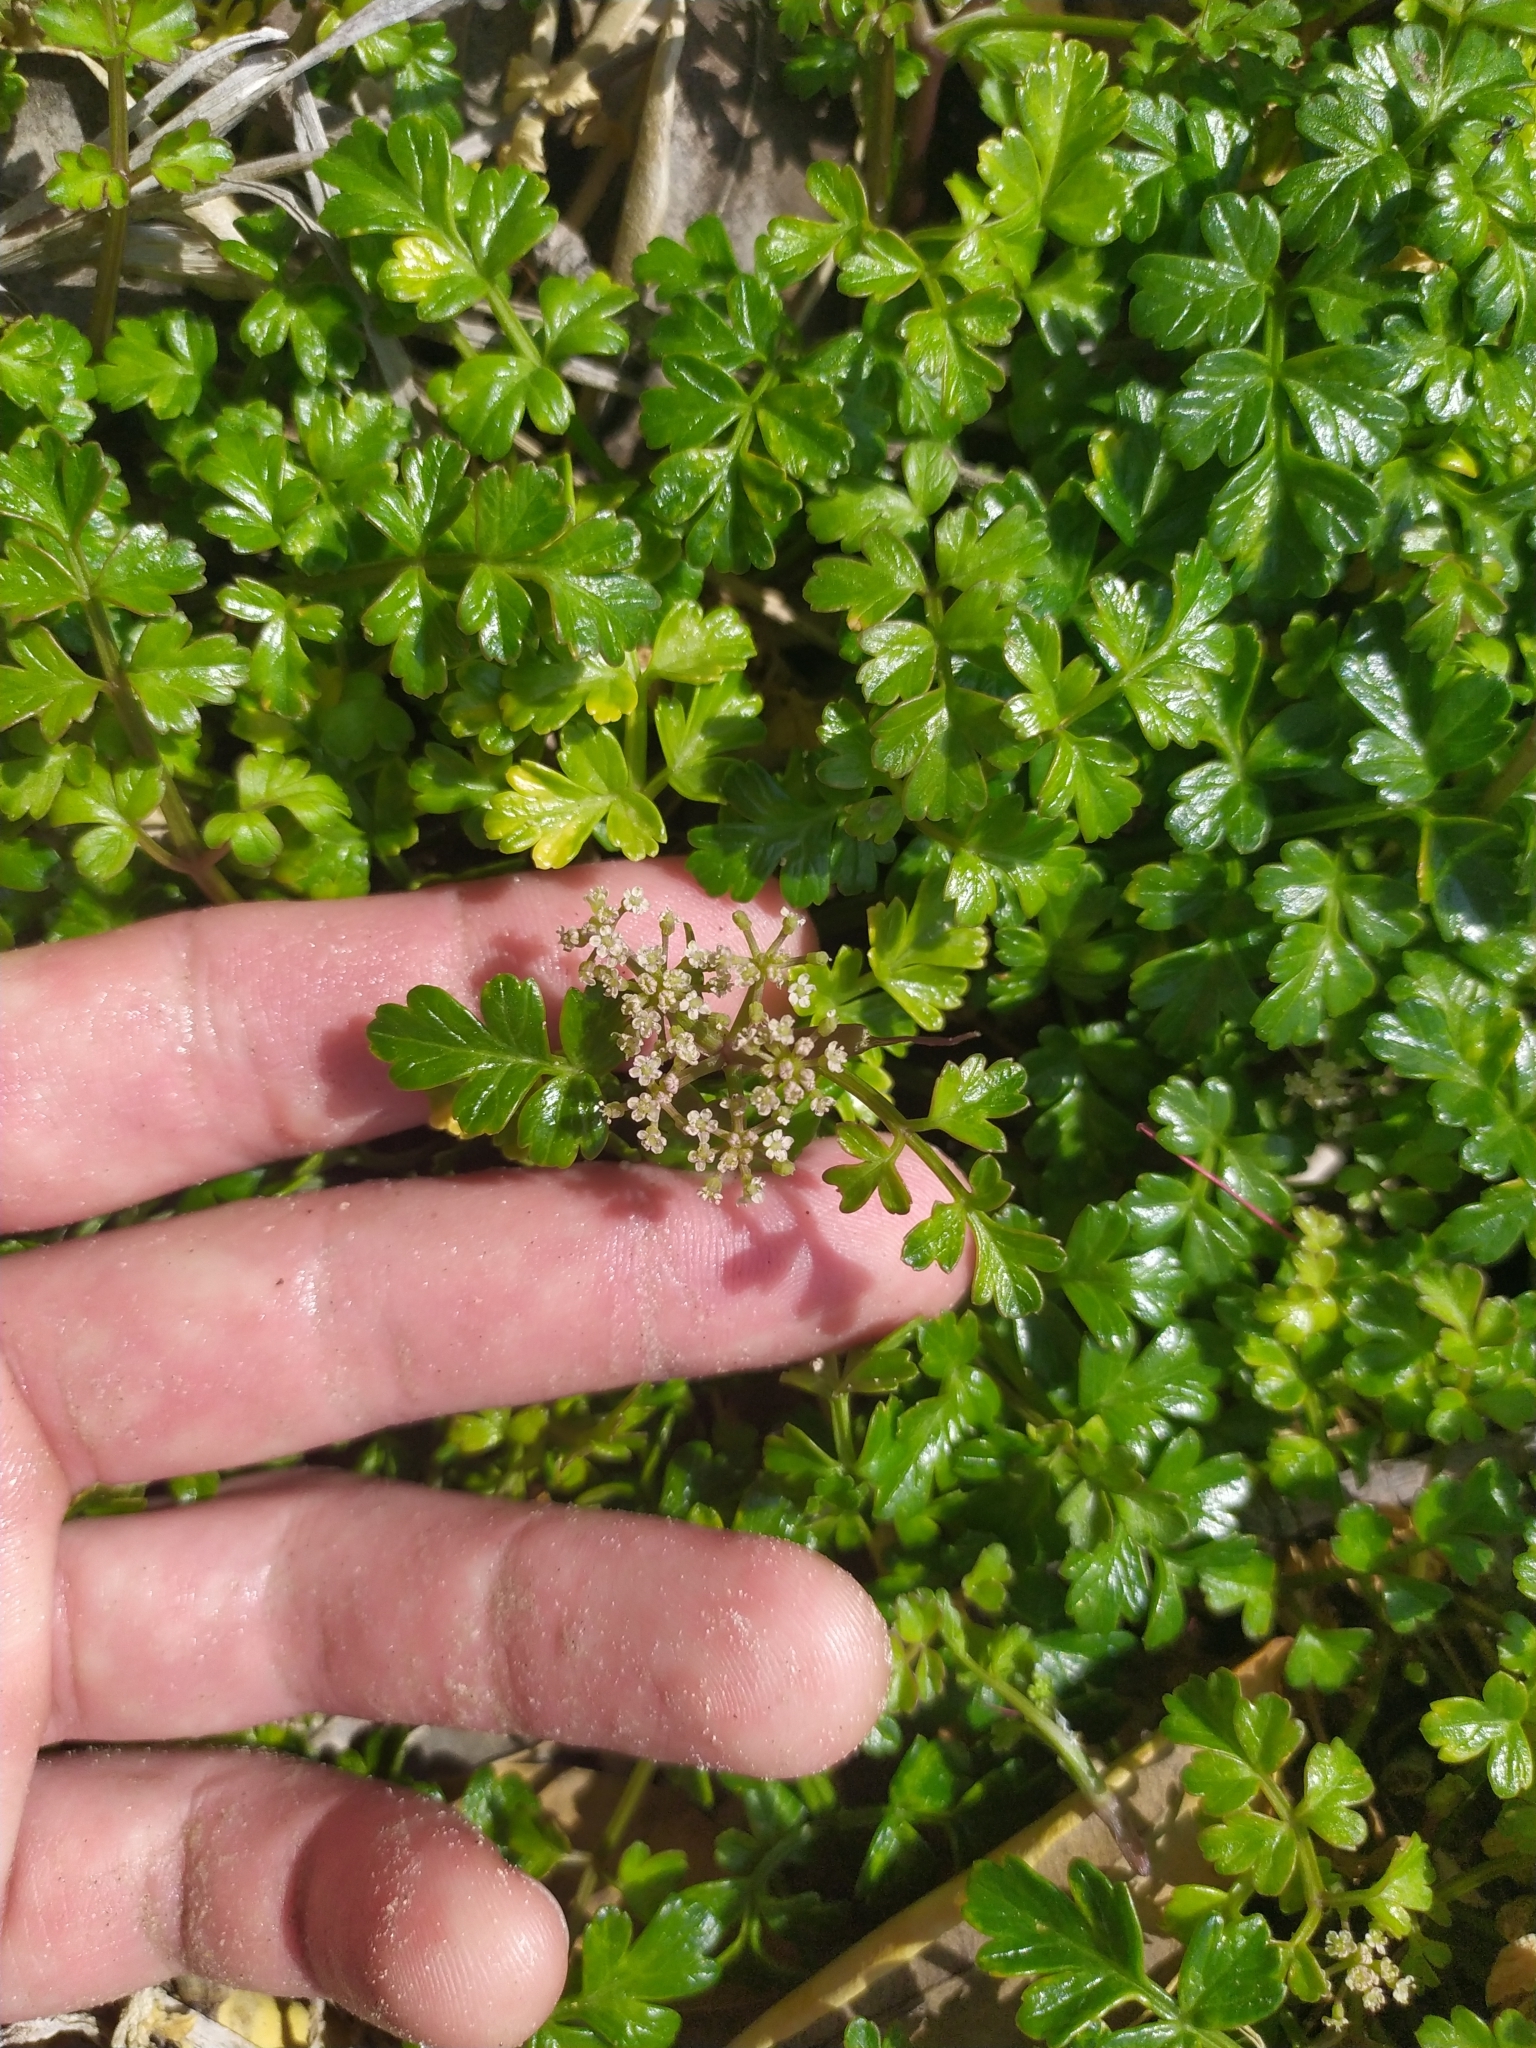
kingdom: Plantae
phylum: Tracheophyta
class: Magnoliopsida
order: Apiales
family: Apiaceae
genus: Apium
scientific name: Apium prostratum
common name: Prostrate marshwort
